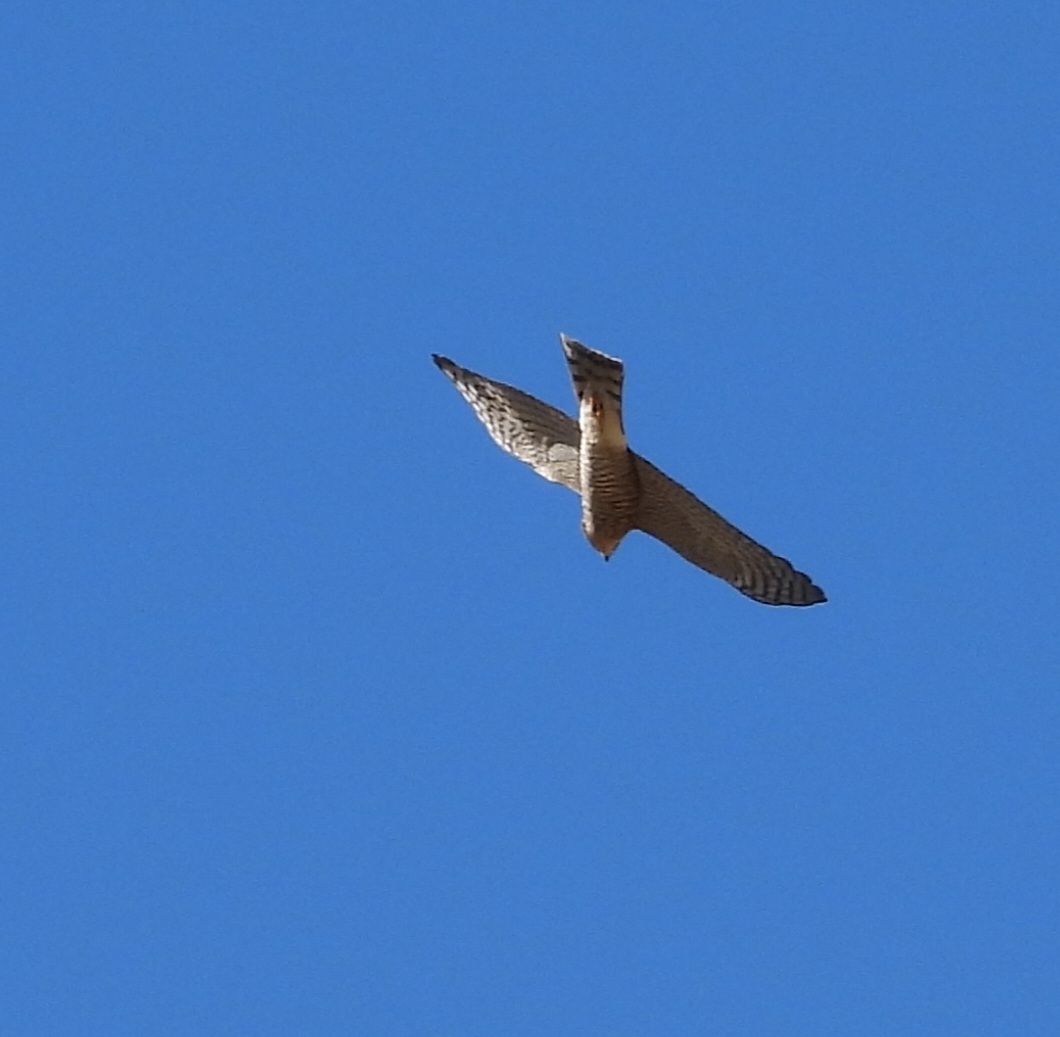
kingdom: Animalia
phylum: Chordata
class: Aves
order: Accipitriformes
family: Accipitridae
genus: Accipiter
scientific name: Accipiter nisus
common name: Eurasian sparrowhawk
